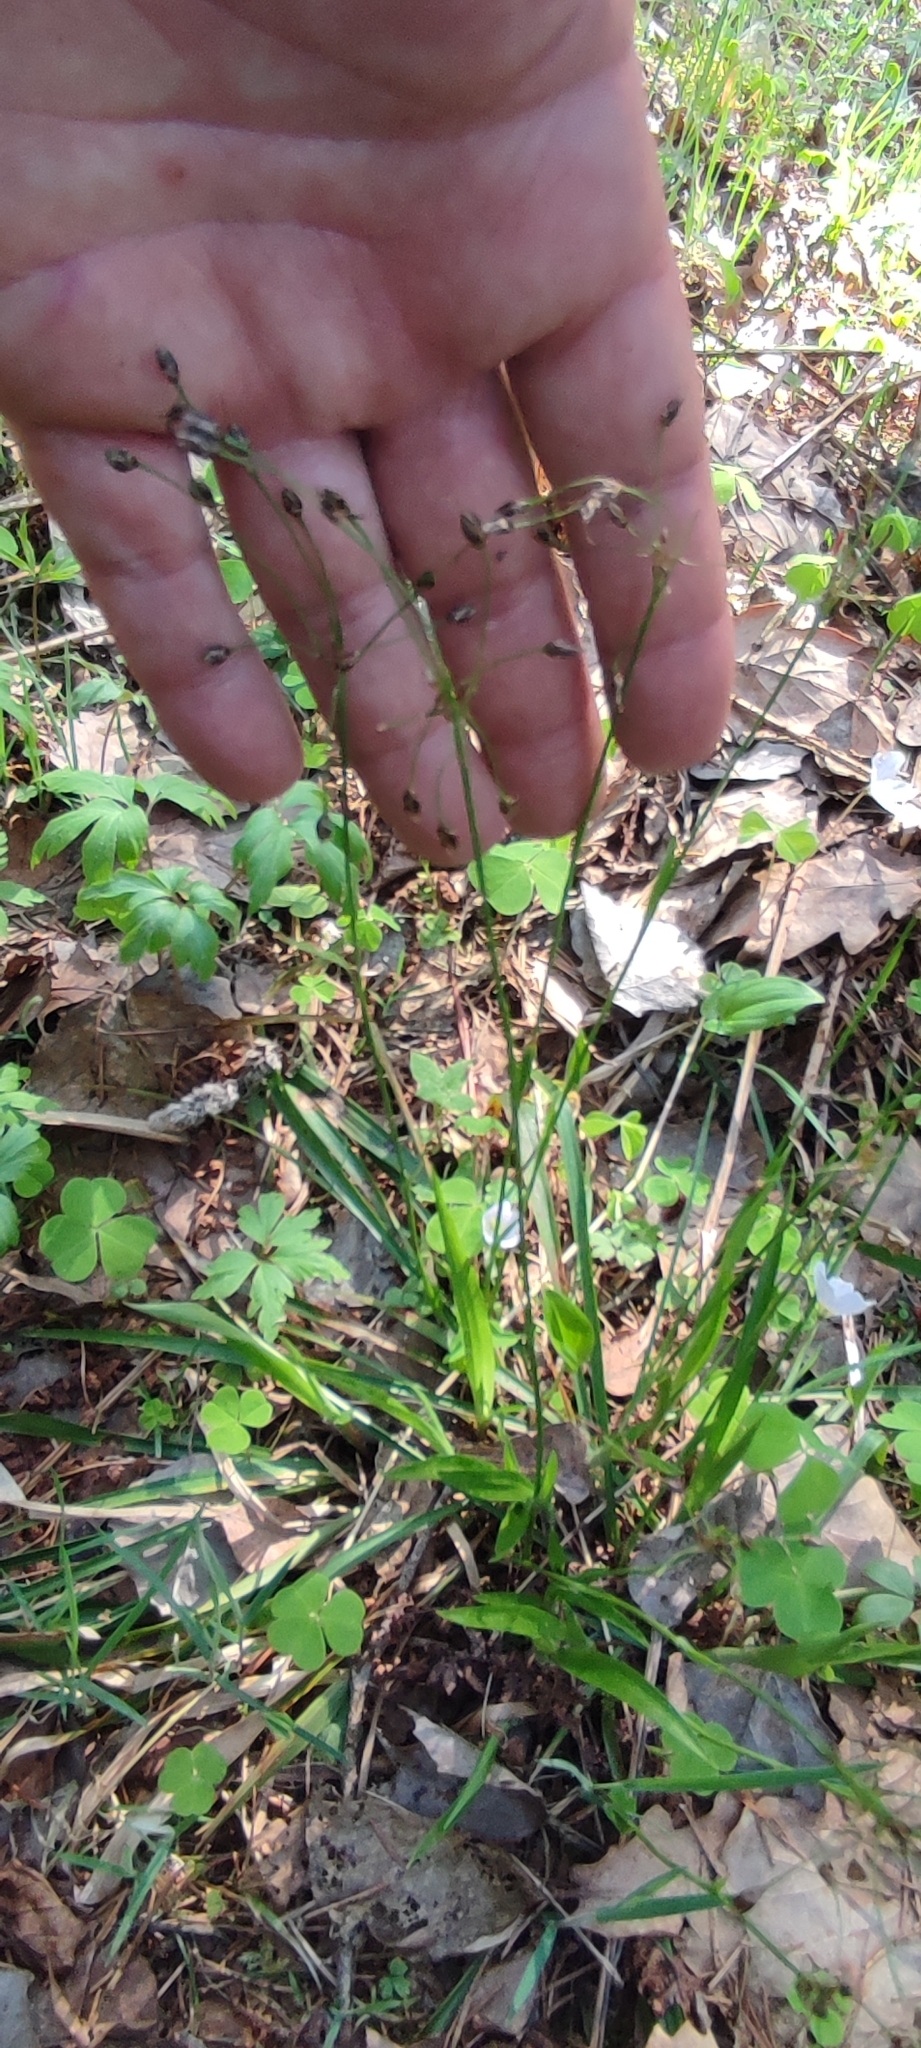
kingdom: Plantae
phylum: Tracheophyta
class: Liliopsida
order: Poales
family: Juncaceae
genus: Luzula
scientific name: Luzula pilosa
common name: Hairy wood-rush
